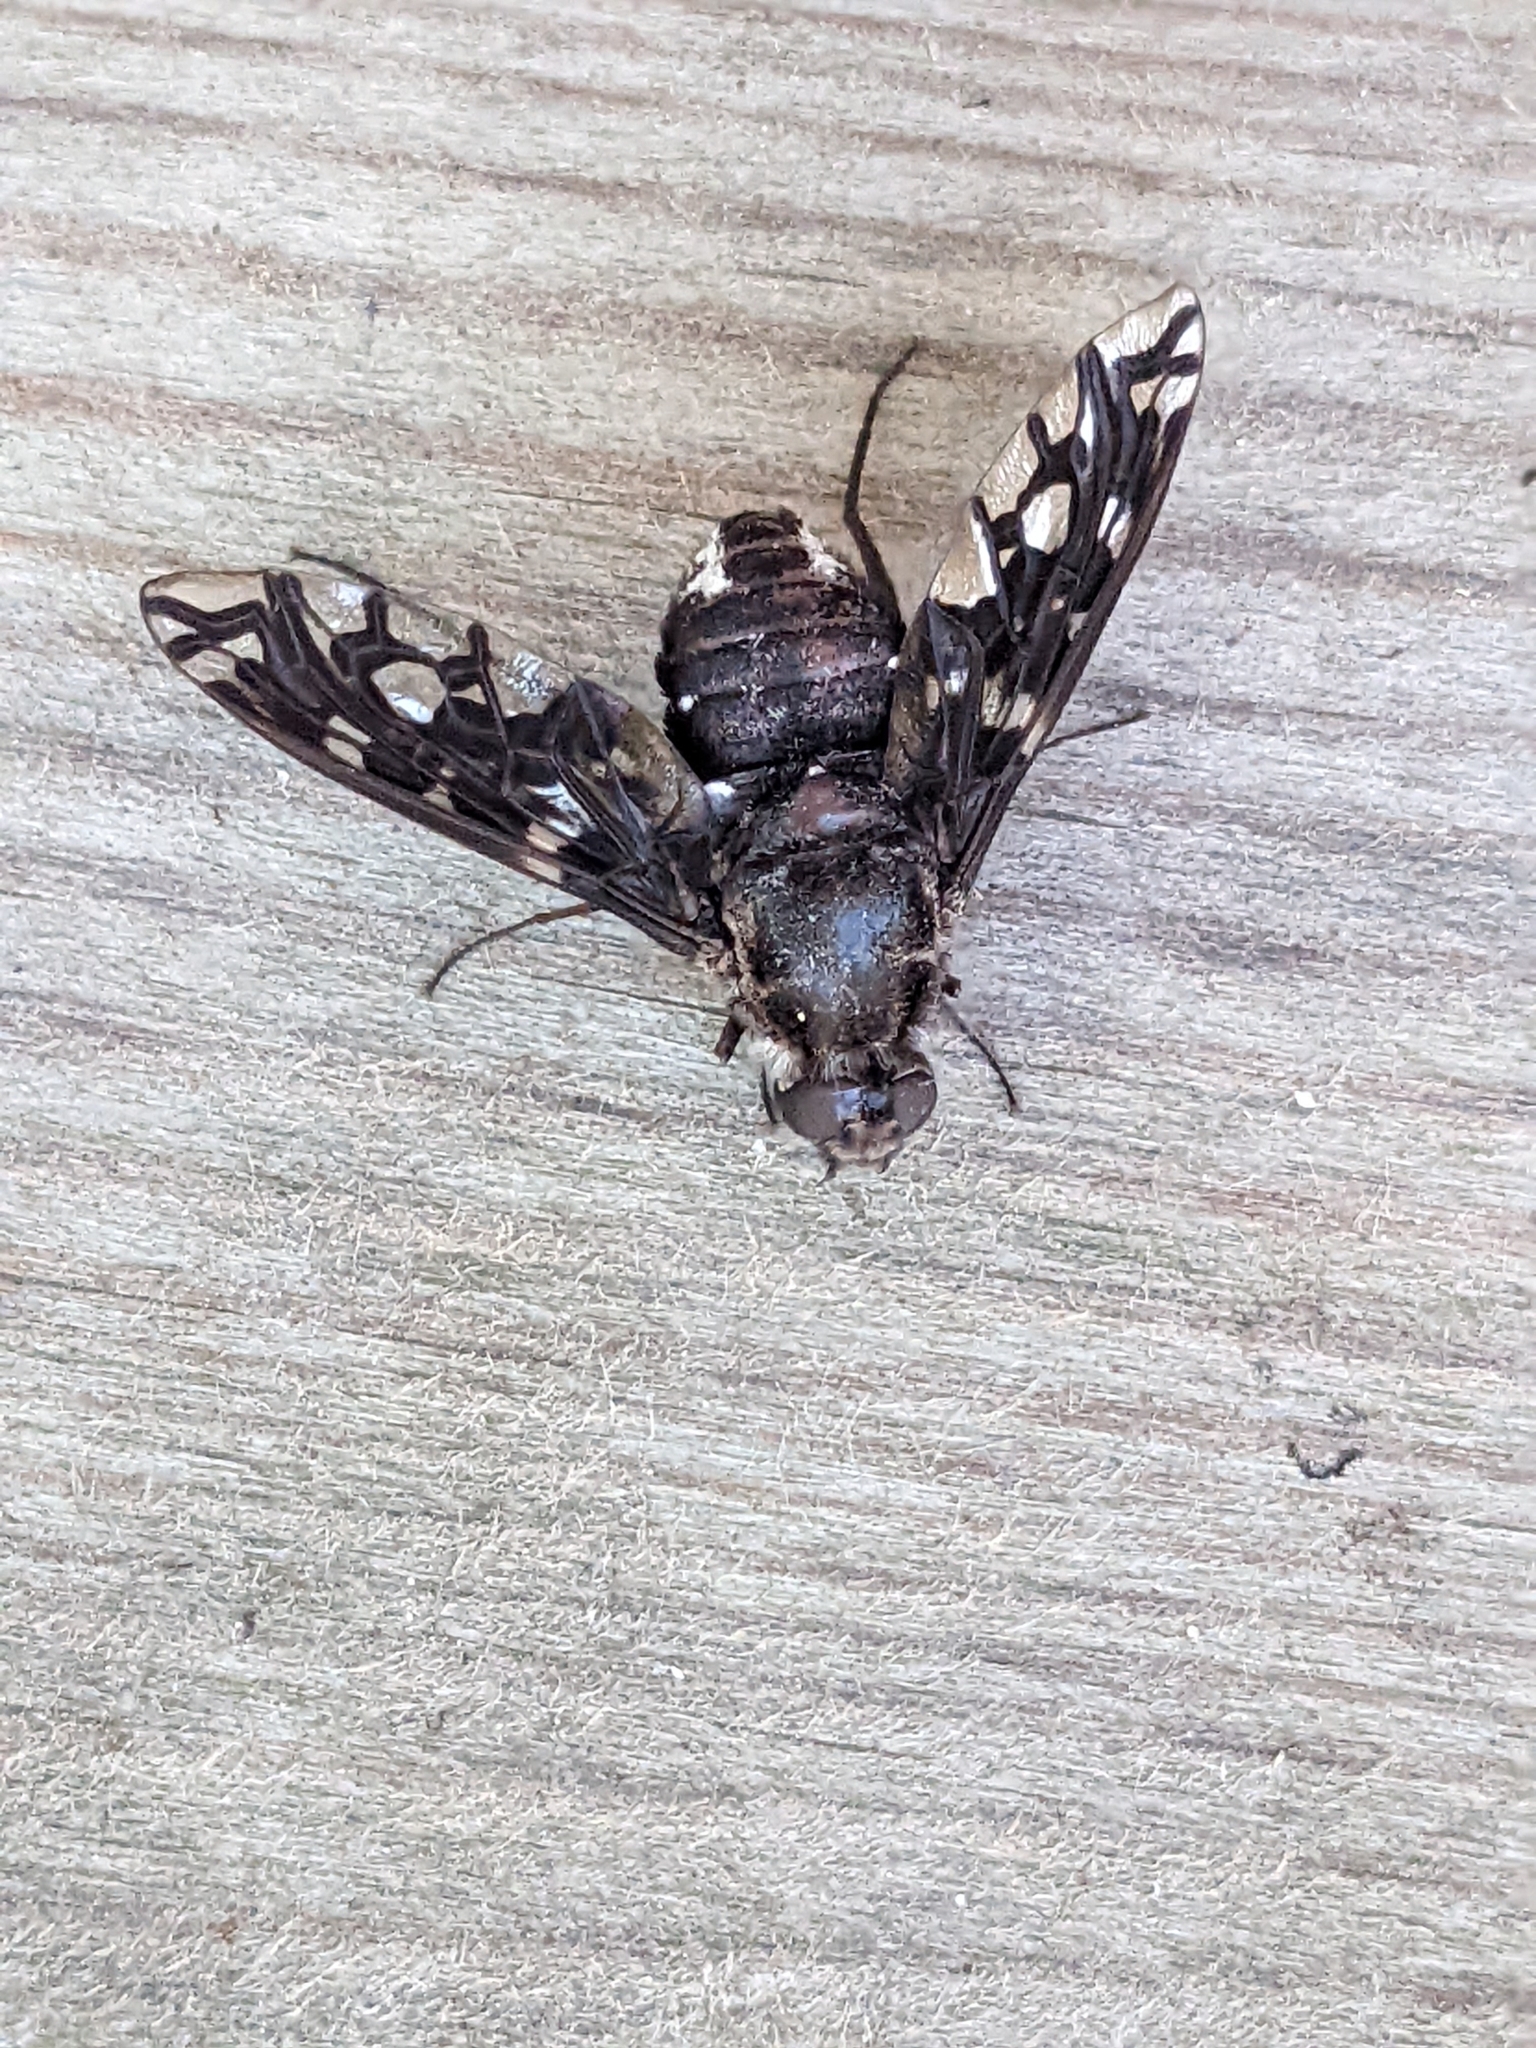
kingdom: Animalia
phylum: Arthropoda
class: Insecta
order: Diptera
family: Bombyliidae
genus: Xenox
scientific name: Xenox tigrinus
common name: Tiger bee fly
